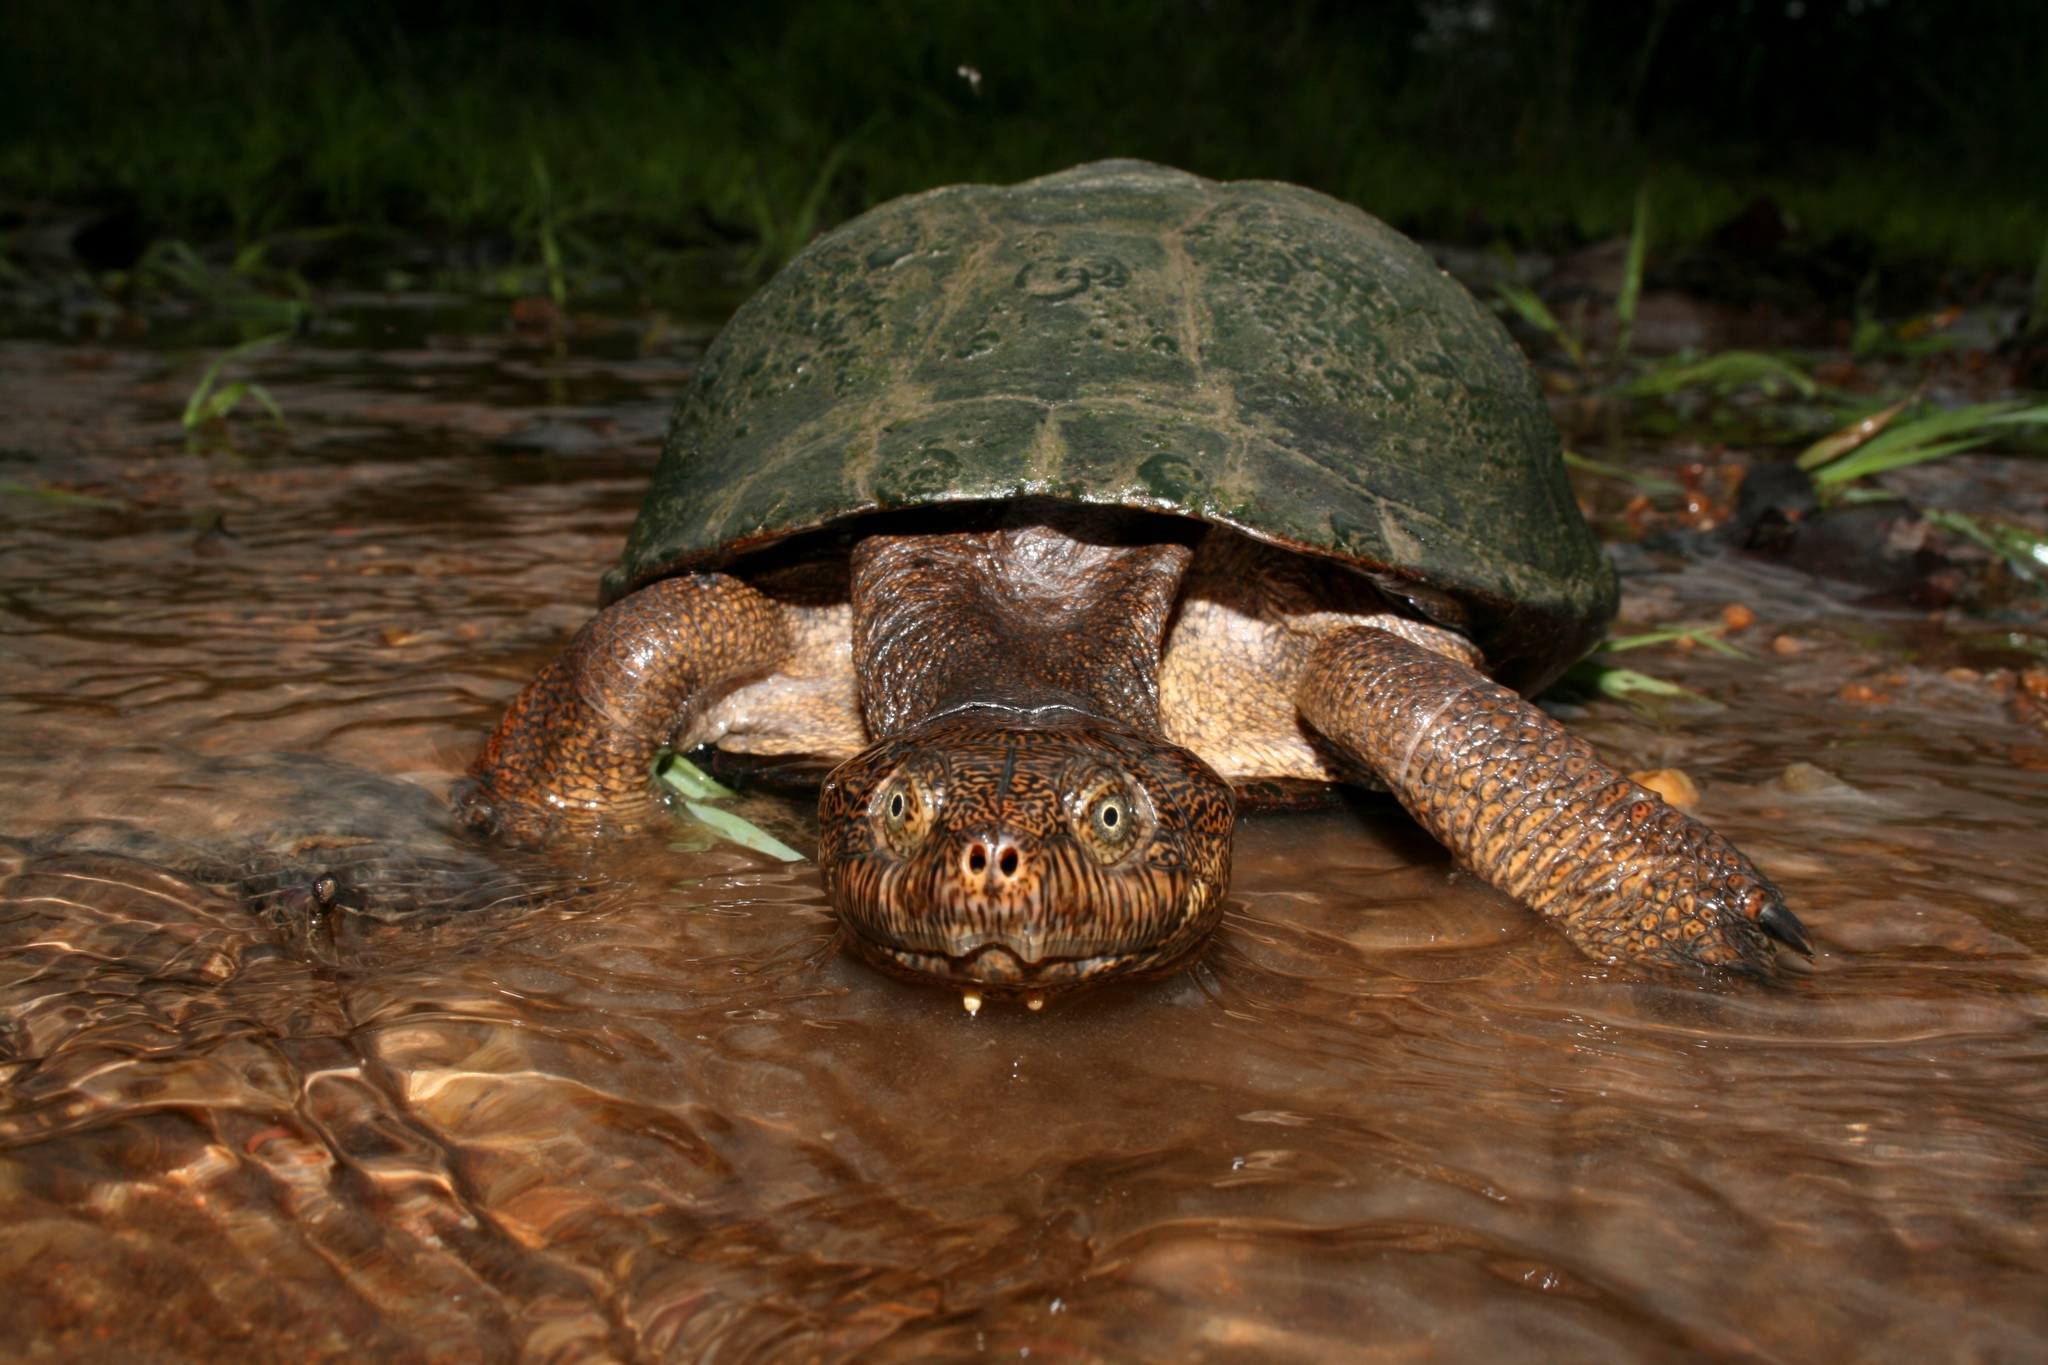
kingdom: Animalia
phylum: Chordata
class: Testudines
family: Pelomedusidae
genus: Pelusios
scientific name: Pelusios sinuatus
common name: Serrated hinged terrapin
